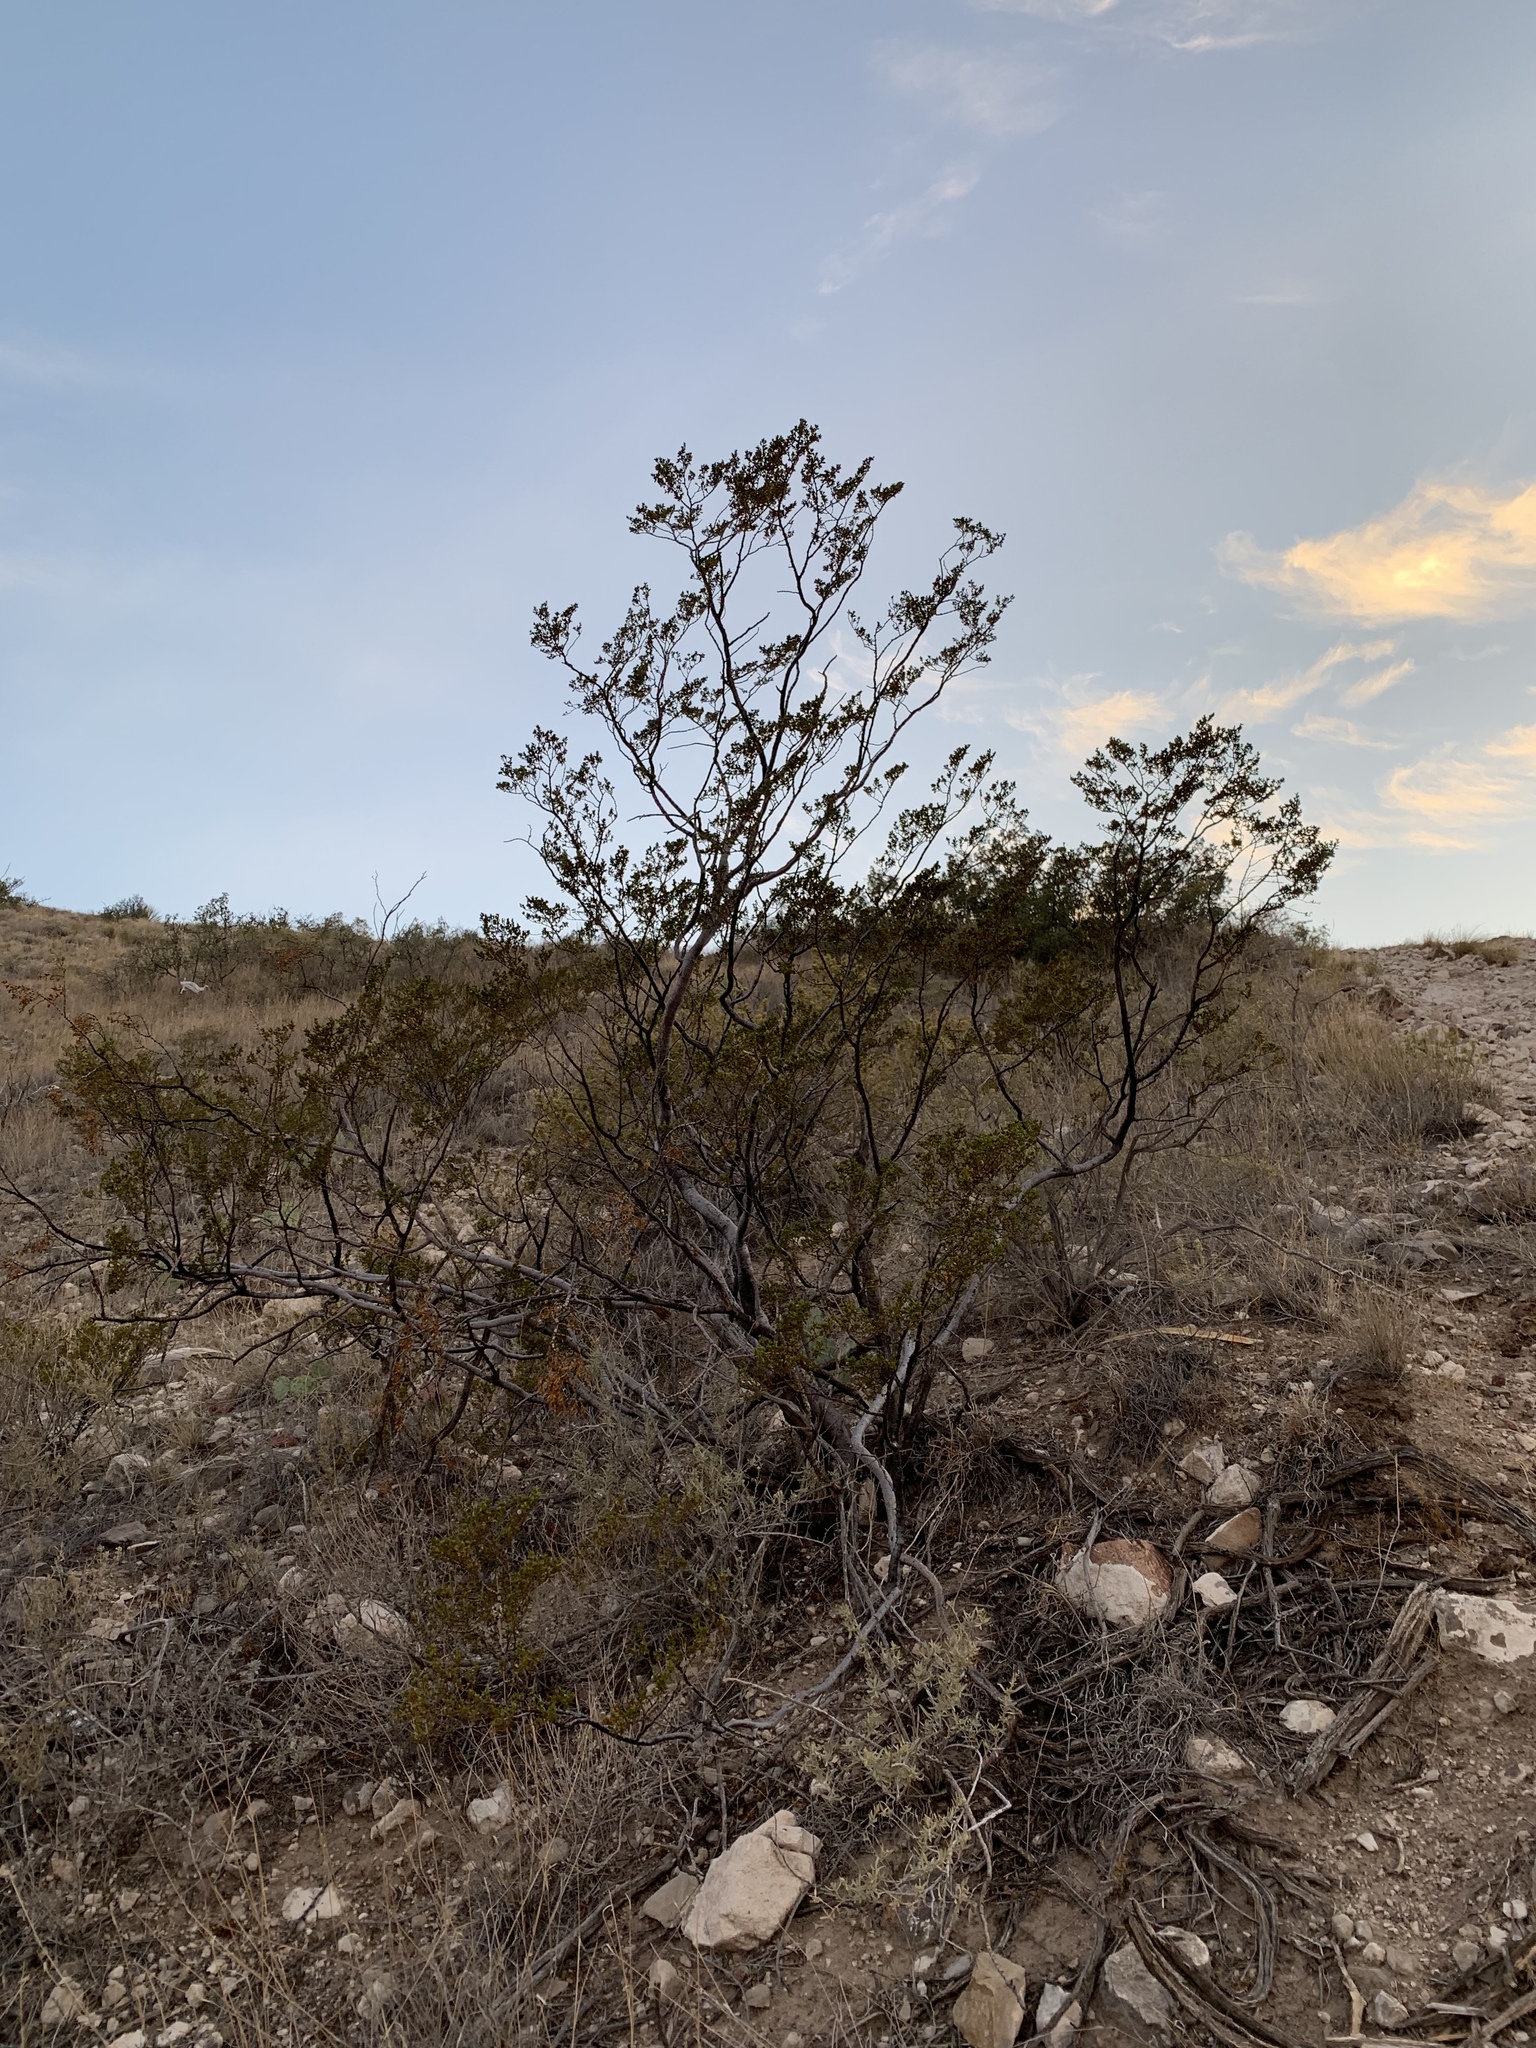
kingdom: Plantae
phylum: Tracheophyta
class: Magnoliopsida
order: Zygophyllales
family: Zygophyllaceae
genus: Larrea
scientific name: Larrea tridentata
